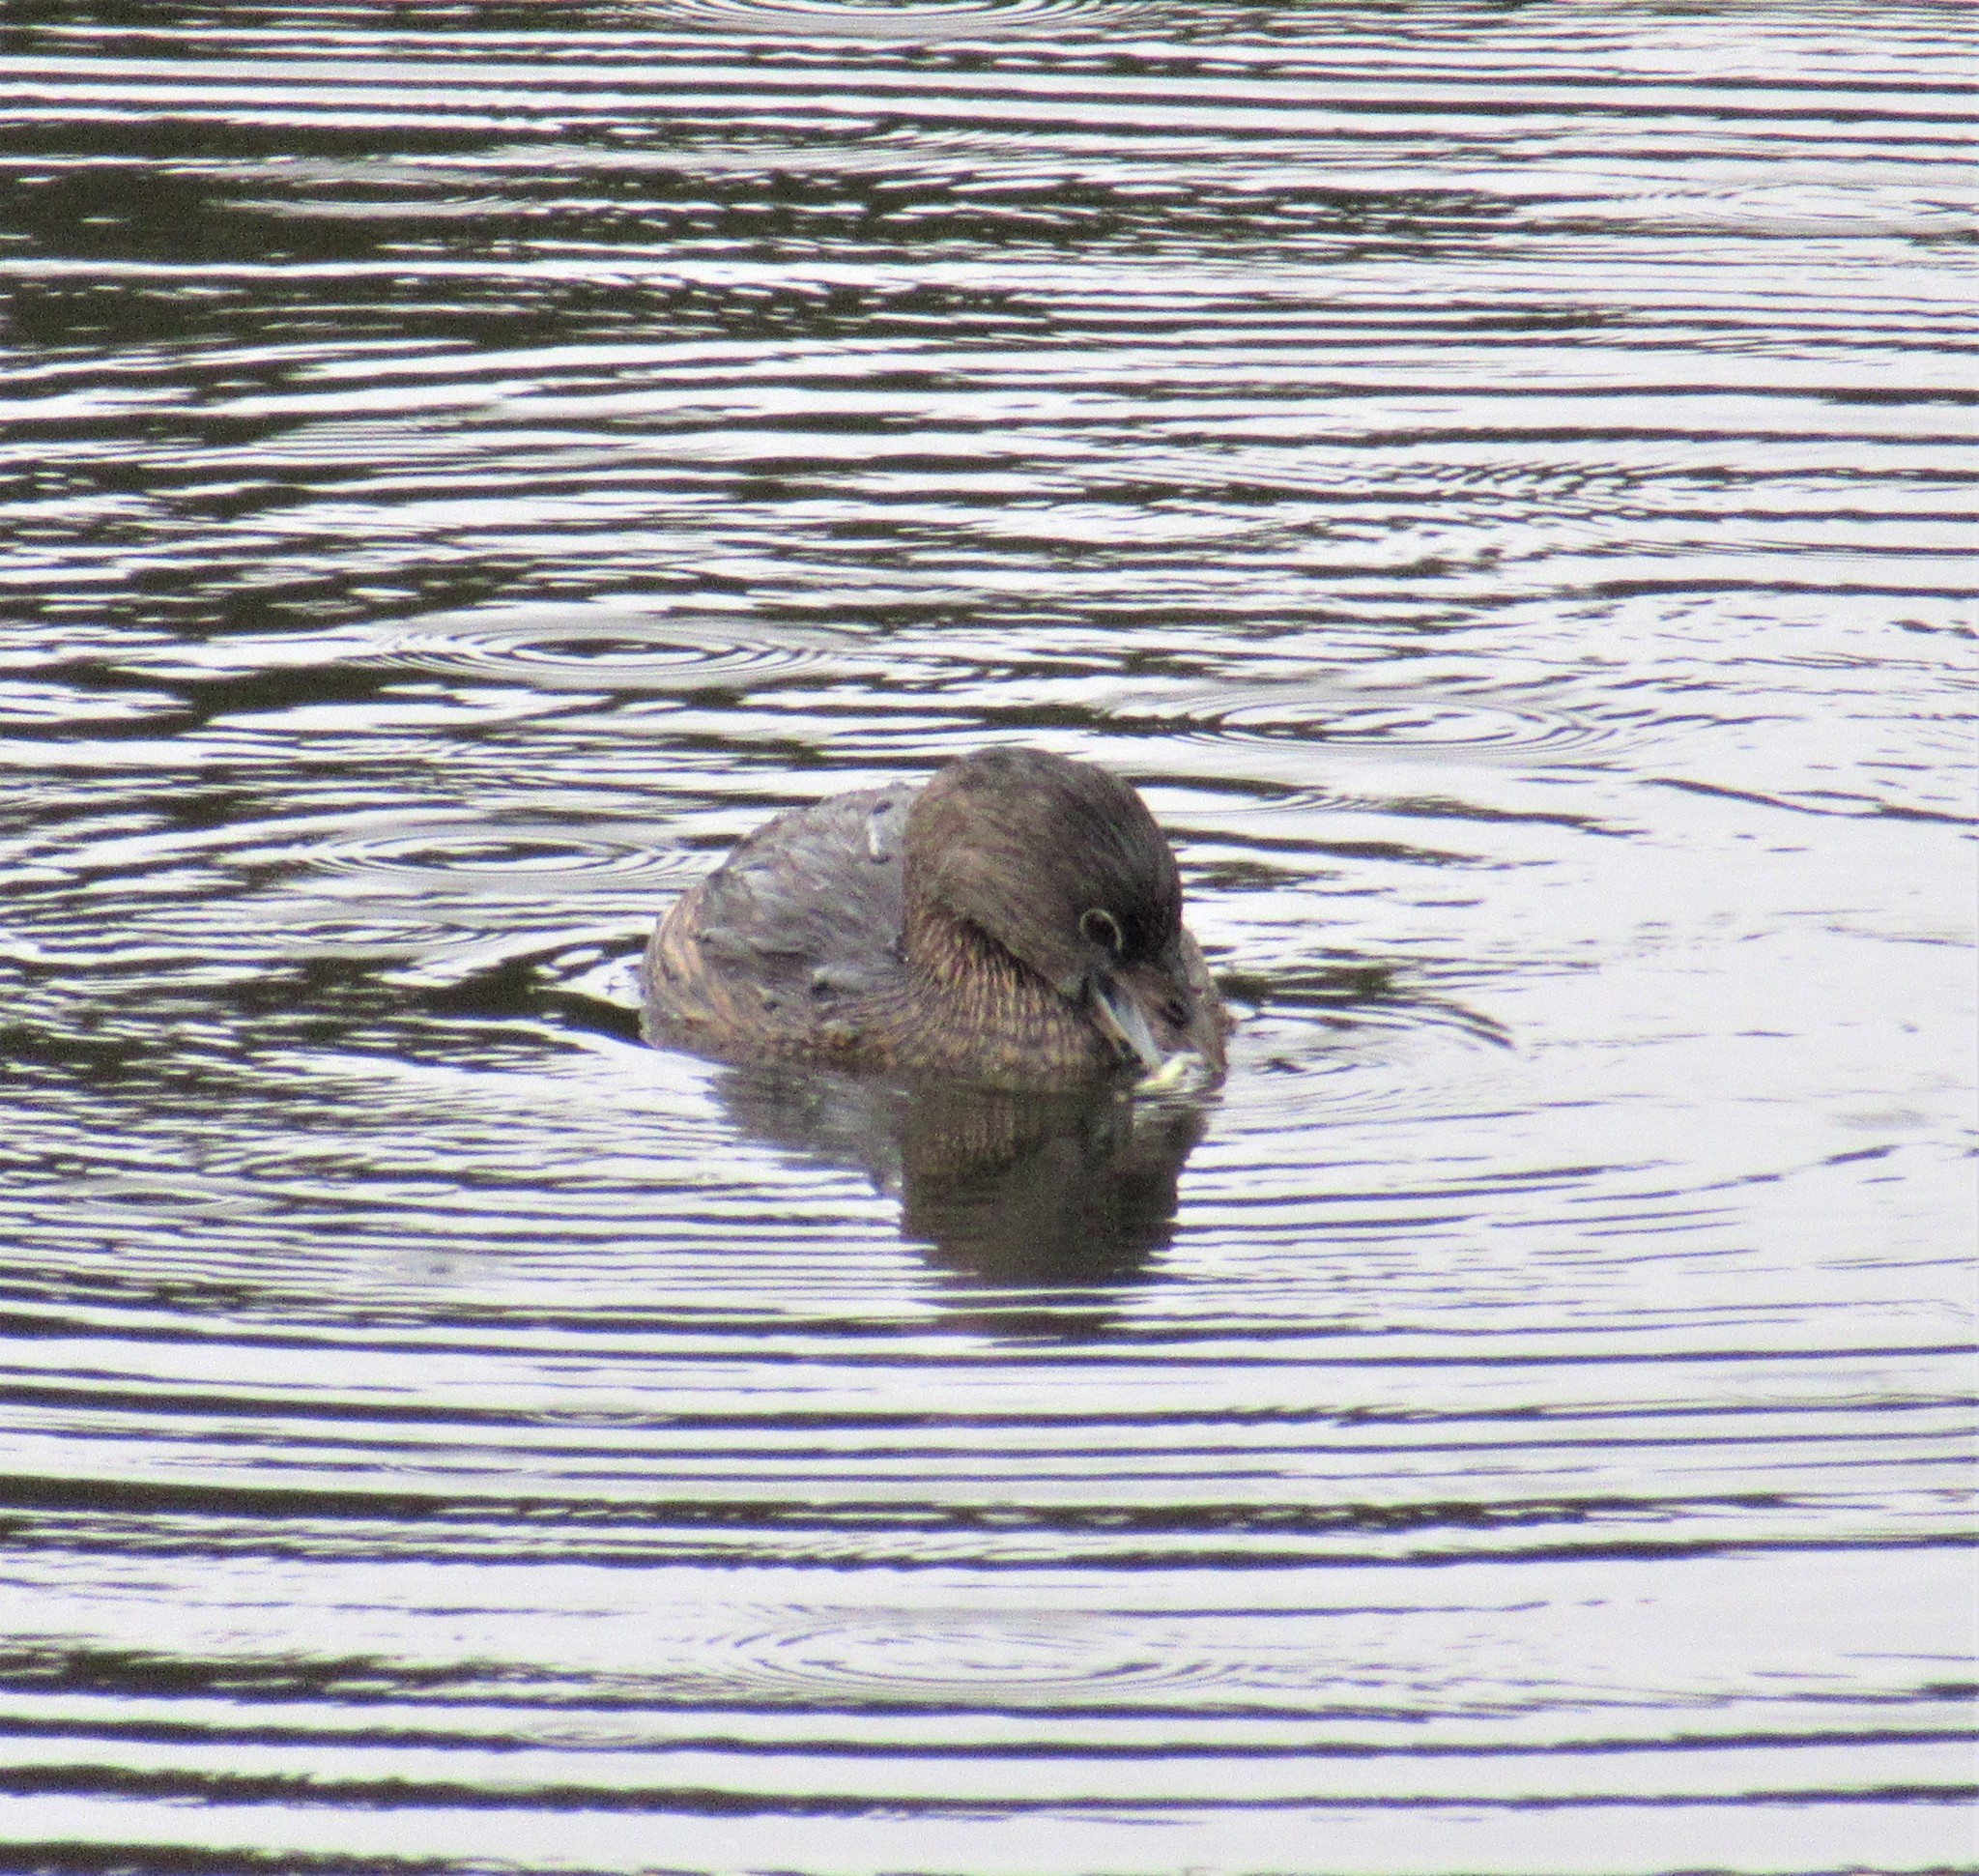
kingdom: Animalia
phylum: Chordata
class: Aves
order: Podicipediformes
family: Podicipedidae
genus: Podilymbus
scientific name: Podilymbus podiceps
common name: Pied-billed grebe
